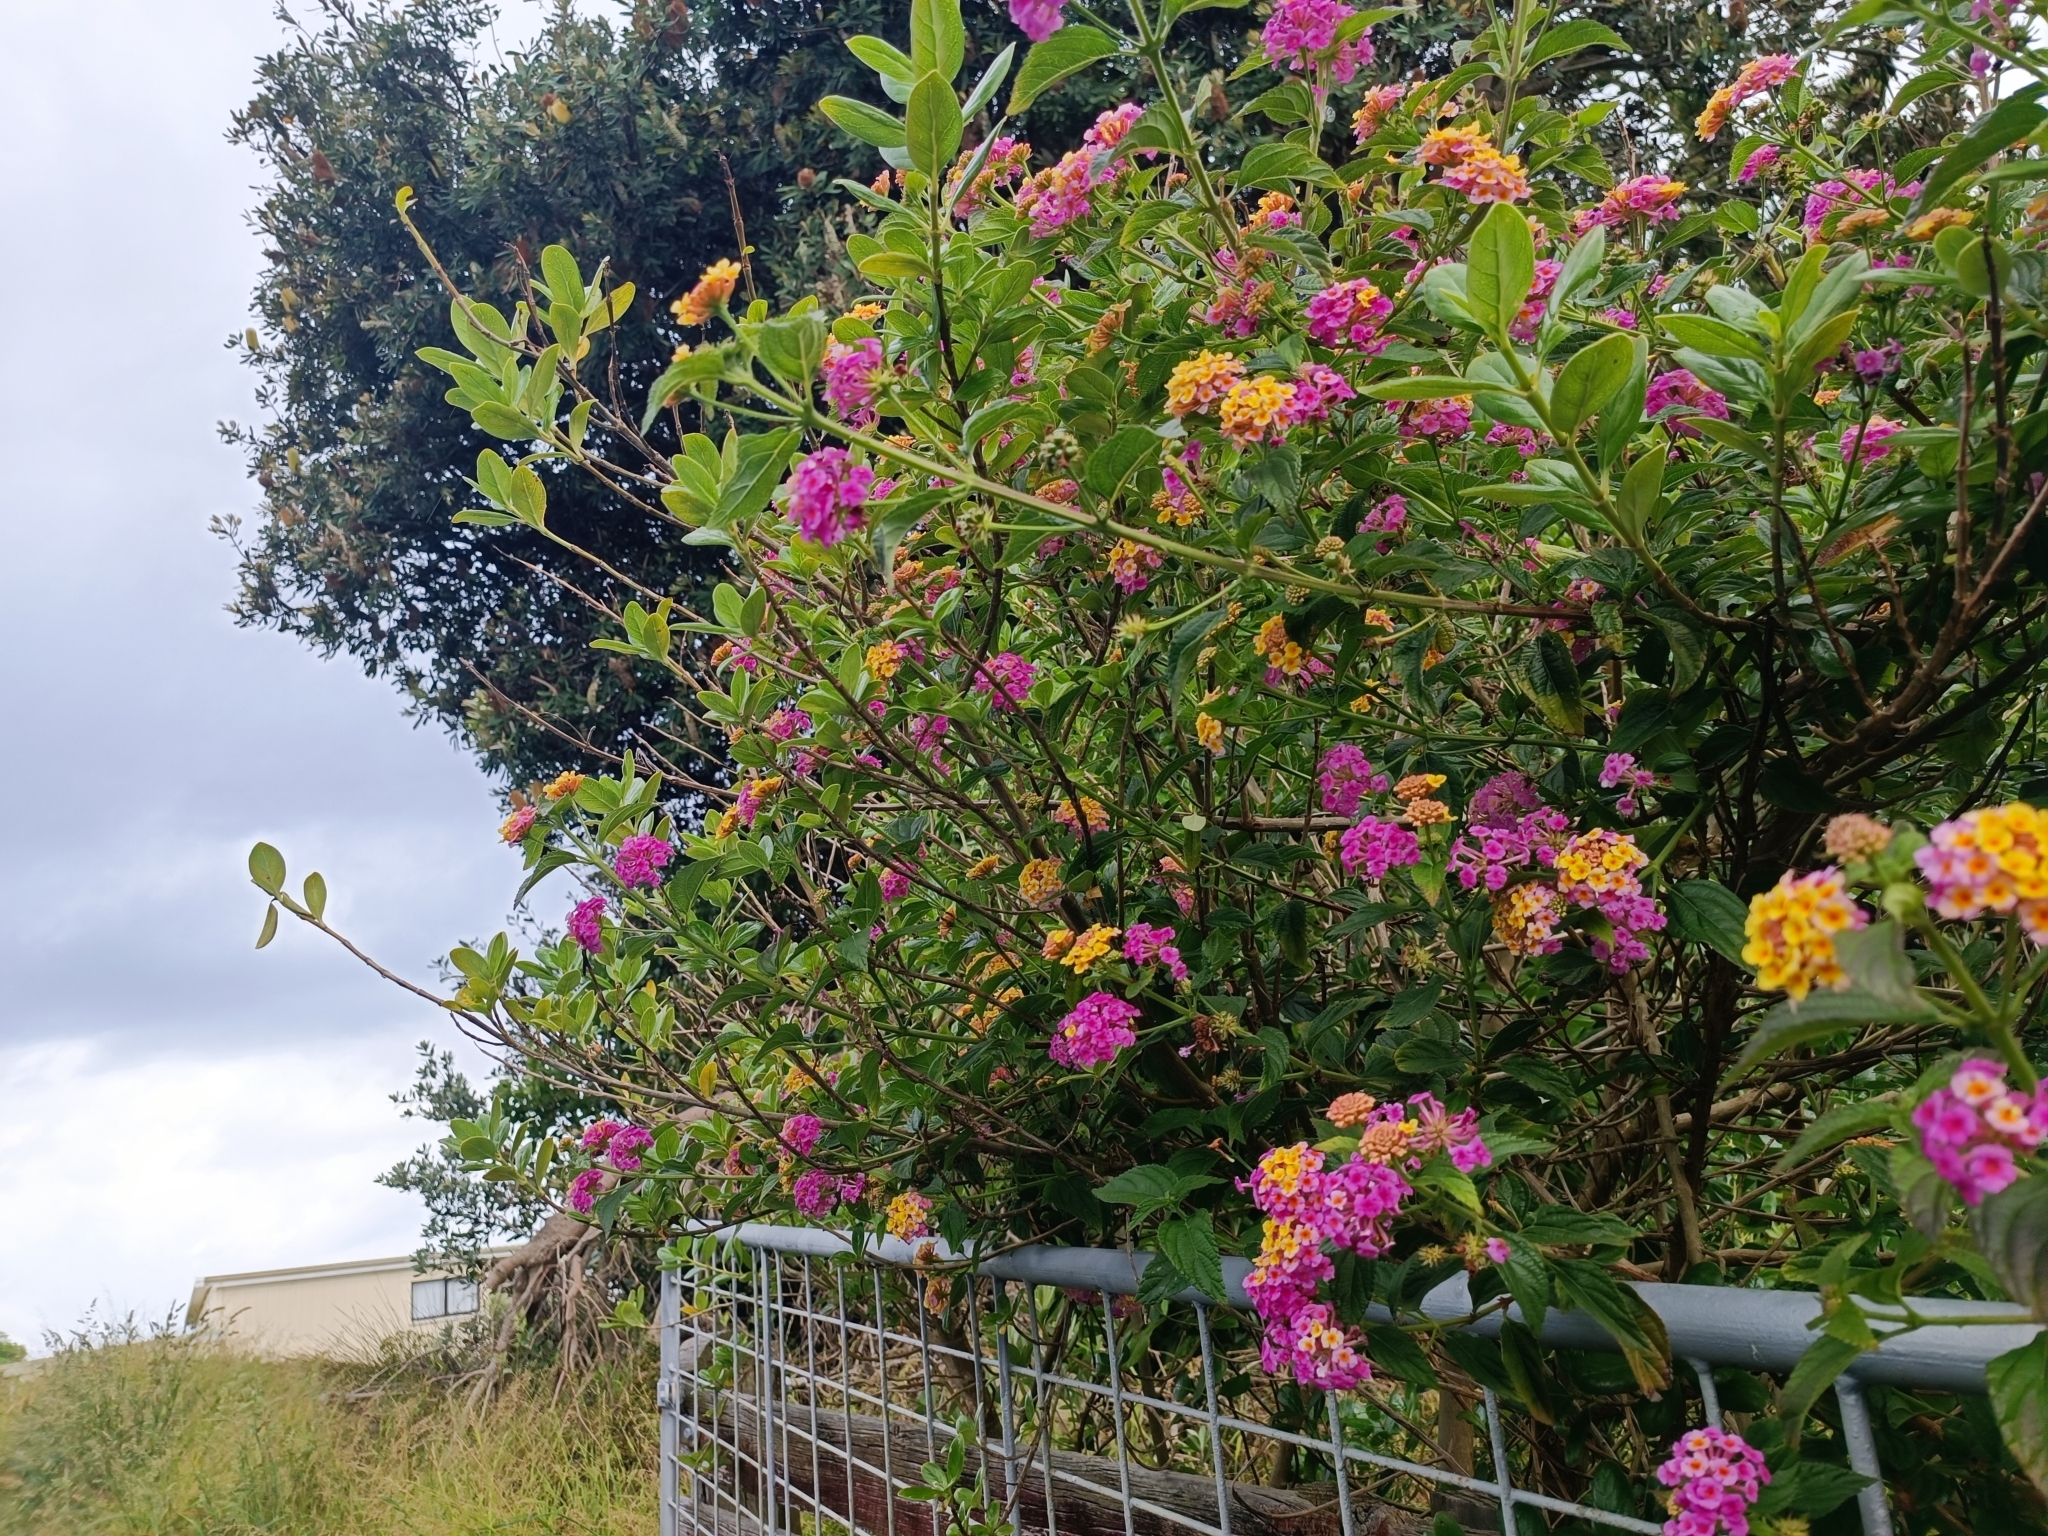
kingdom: Plantae
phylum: Tracheophyta
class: Magnoliopsida
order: Lamiales
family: Verbenaceae
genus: Lantana
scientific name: Lantana camara
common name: Lantana
